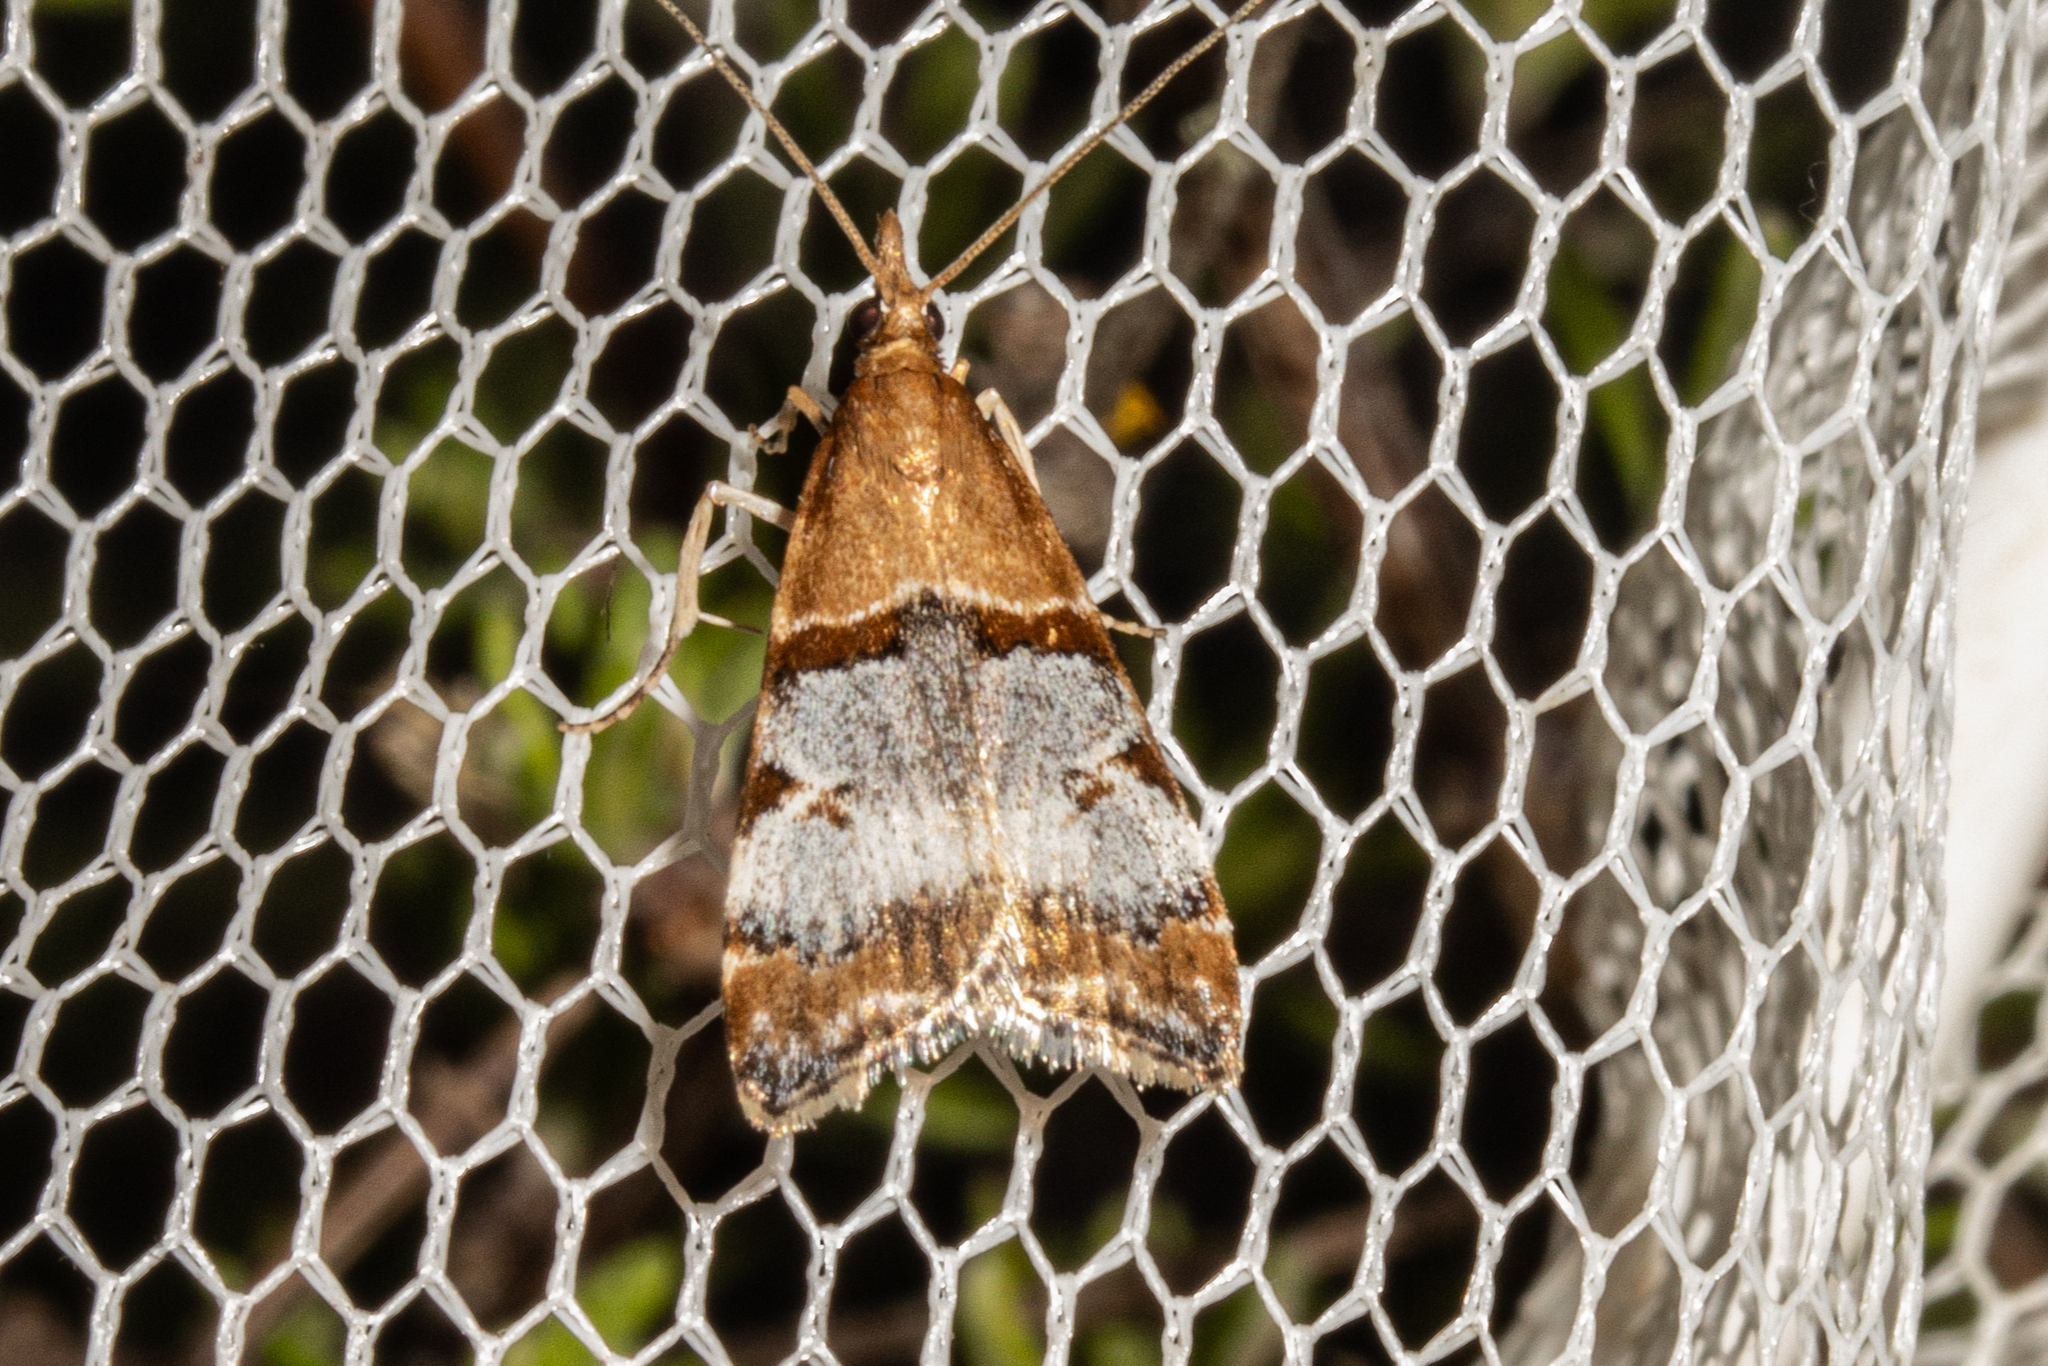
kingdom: Animalia
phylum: Arthropoda
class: Insecta
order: Lepidoptera
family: Crambidae
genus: Antiscopa
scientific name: Antiscopa epicomia
